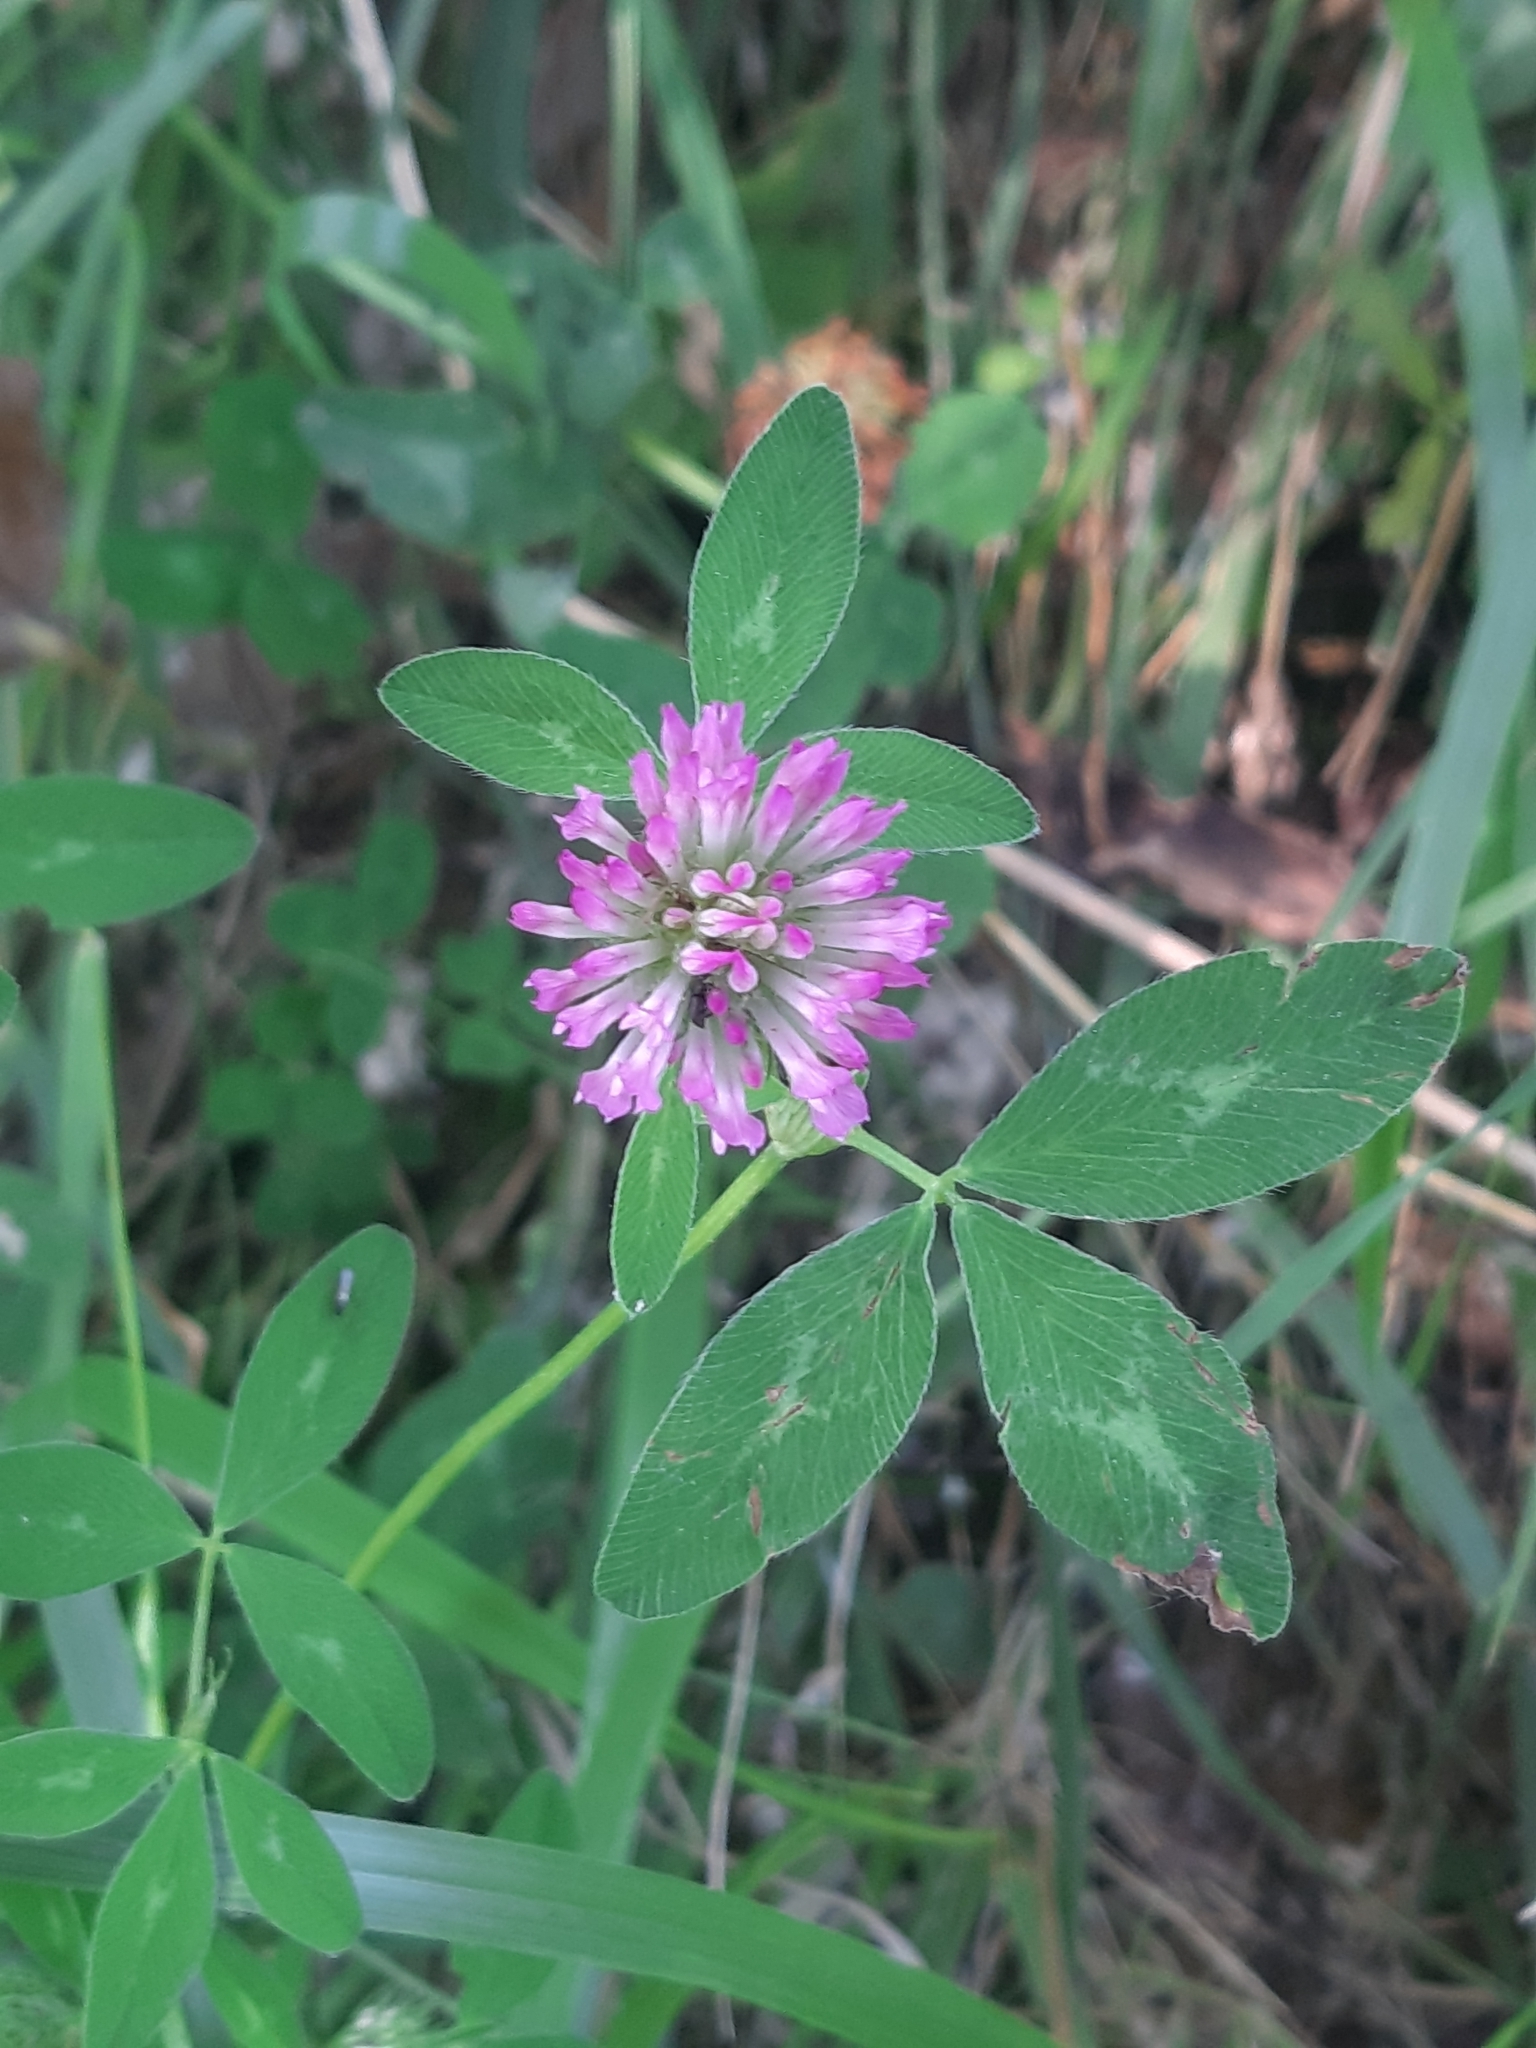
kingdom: Plantae
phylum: Tracheophyta
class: Magnoliopsida
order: Fabales
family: Fabaceae
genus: Trifolium
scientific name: Trifolium pratense
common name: Red clover
